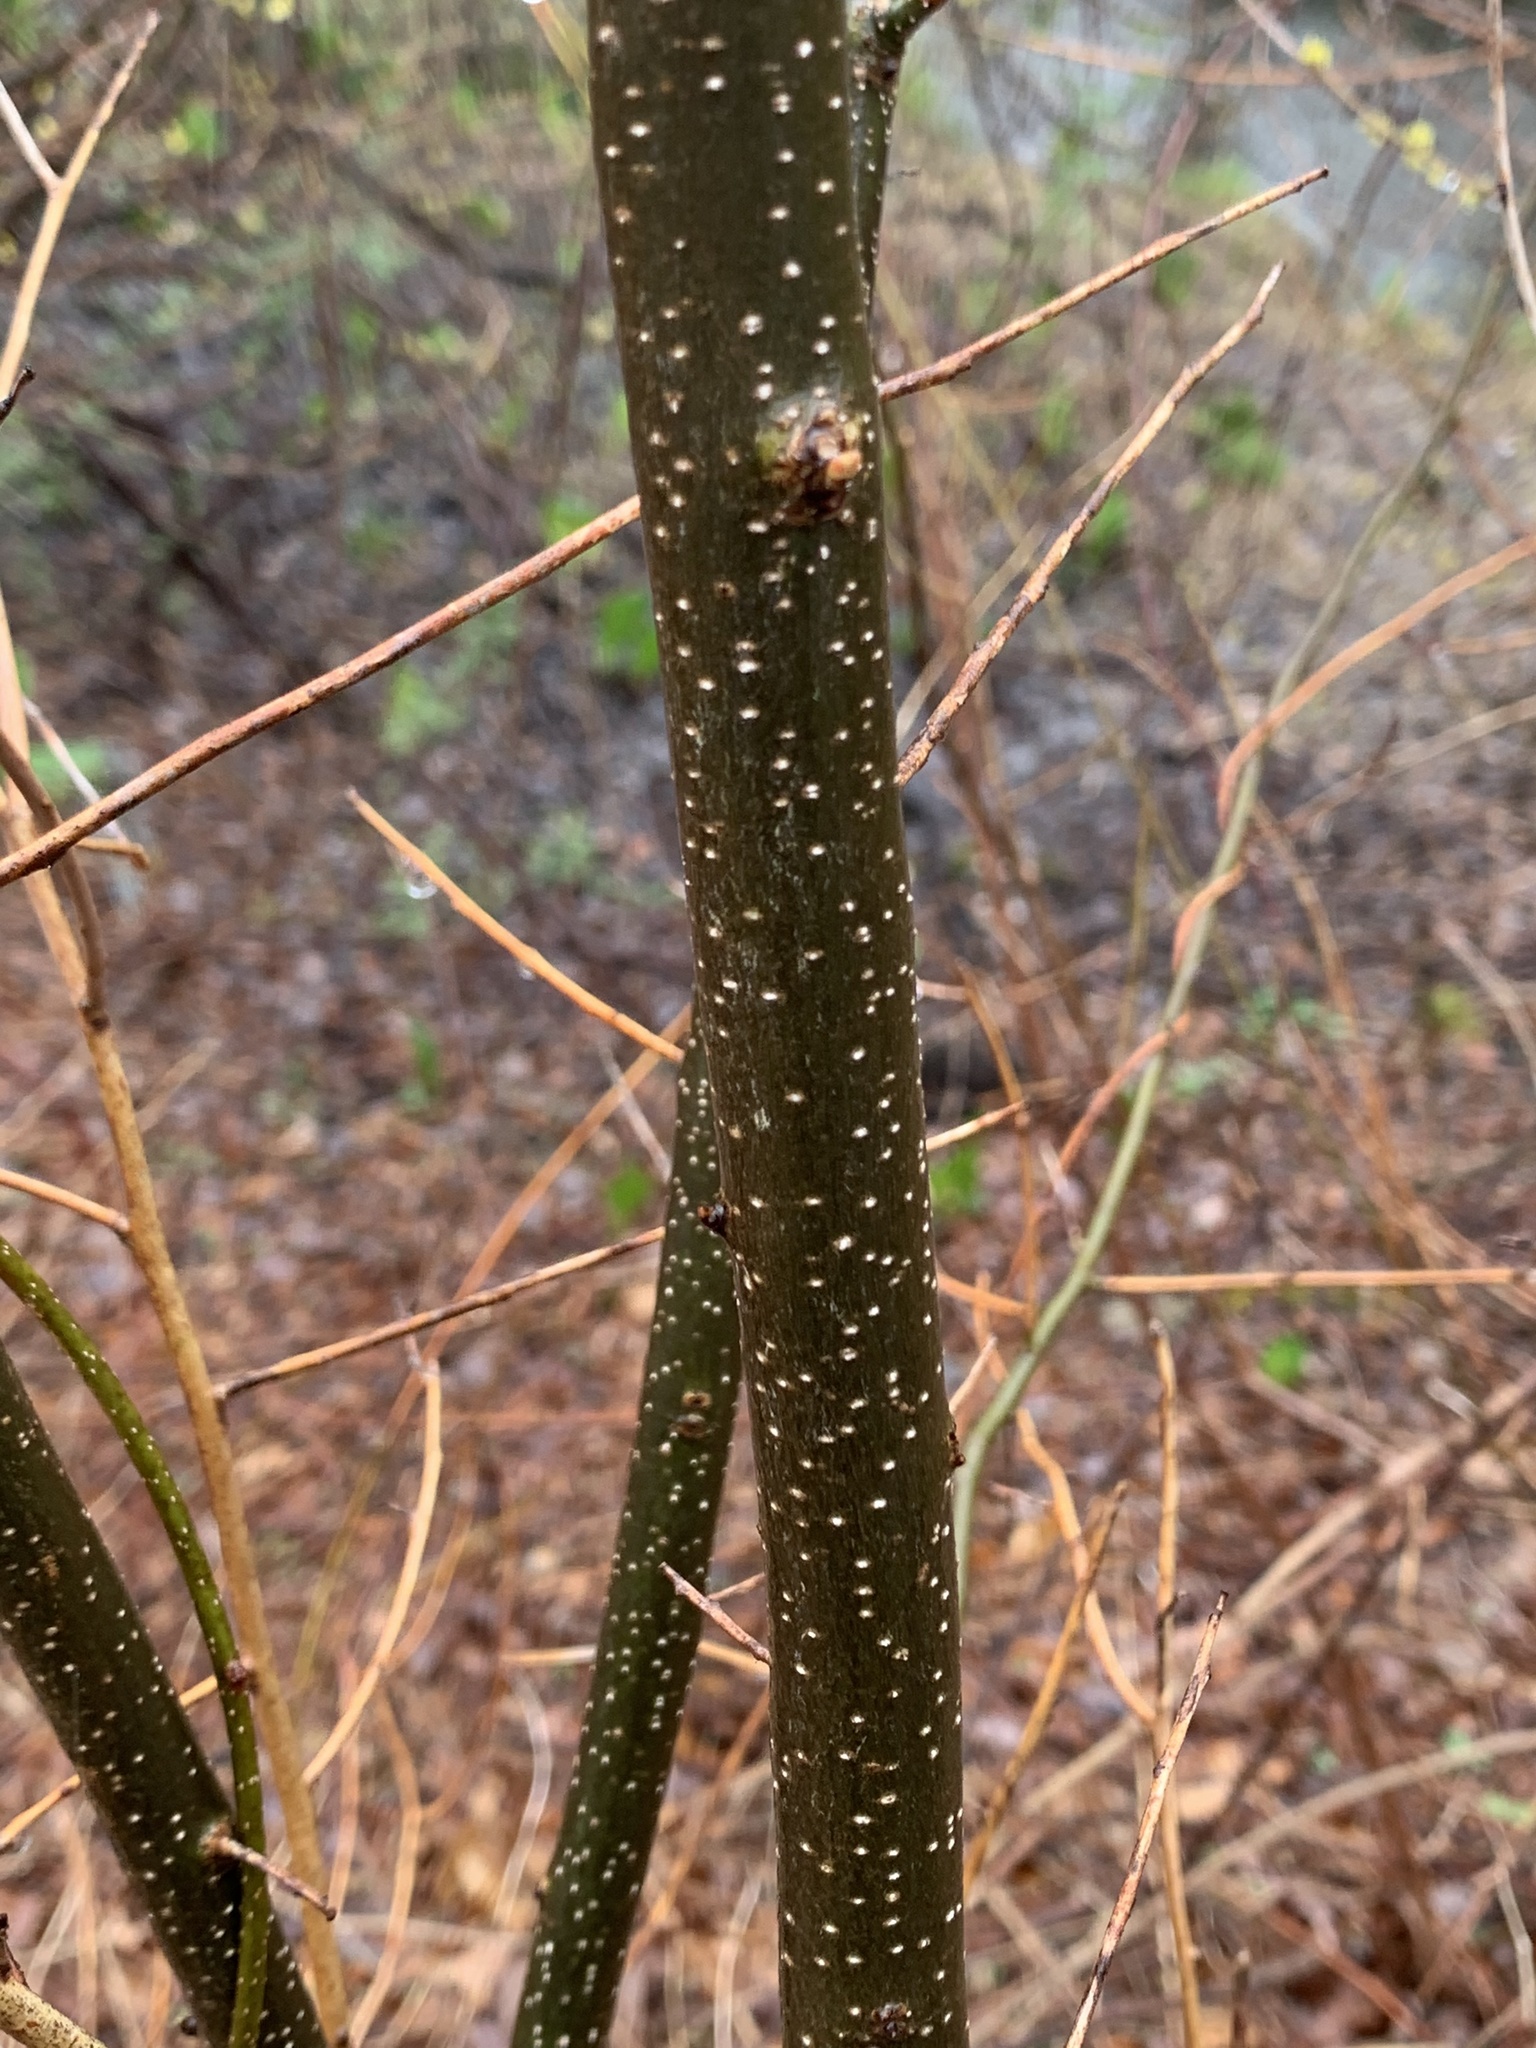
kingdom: Plantae
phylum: Tracheophyta
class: Magnoliopsida
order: Laurales
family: Lauraceae
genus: Lindera
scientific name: Lindera benzoin
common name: Spicebush
